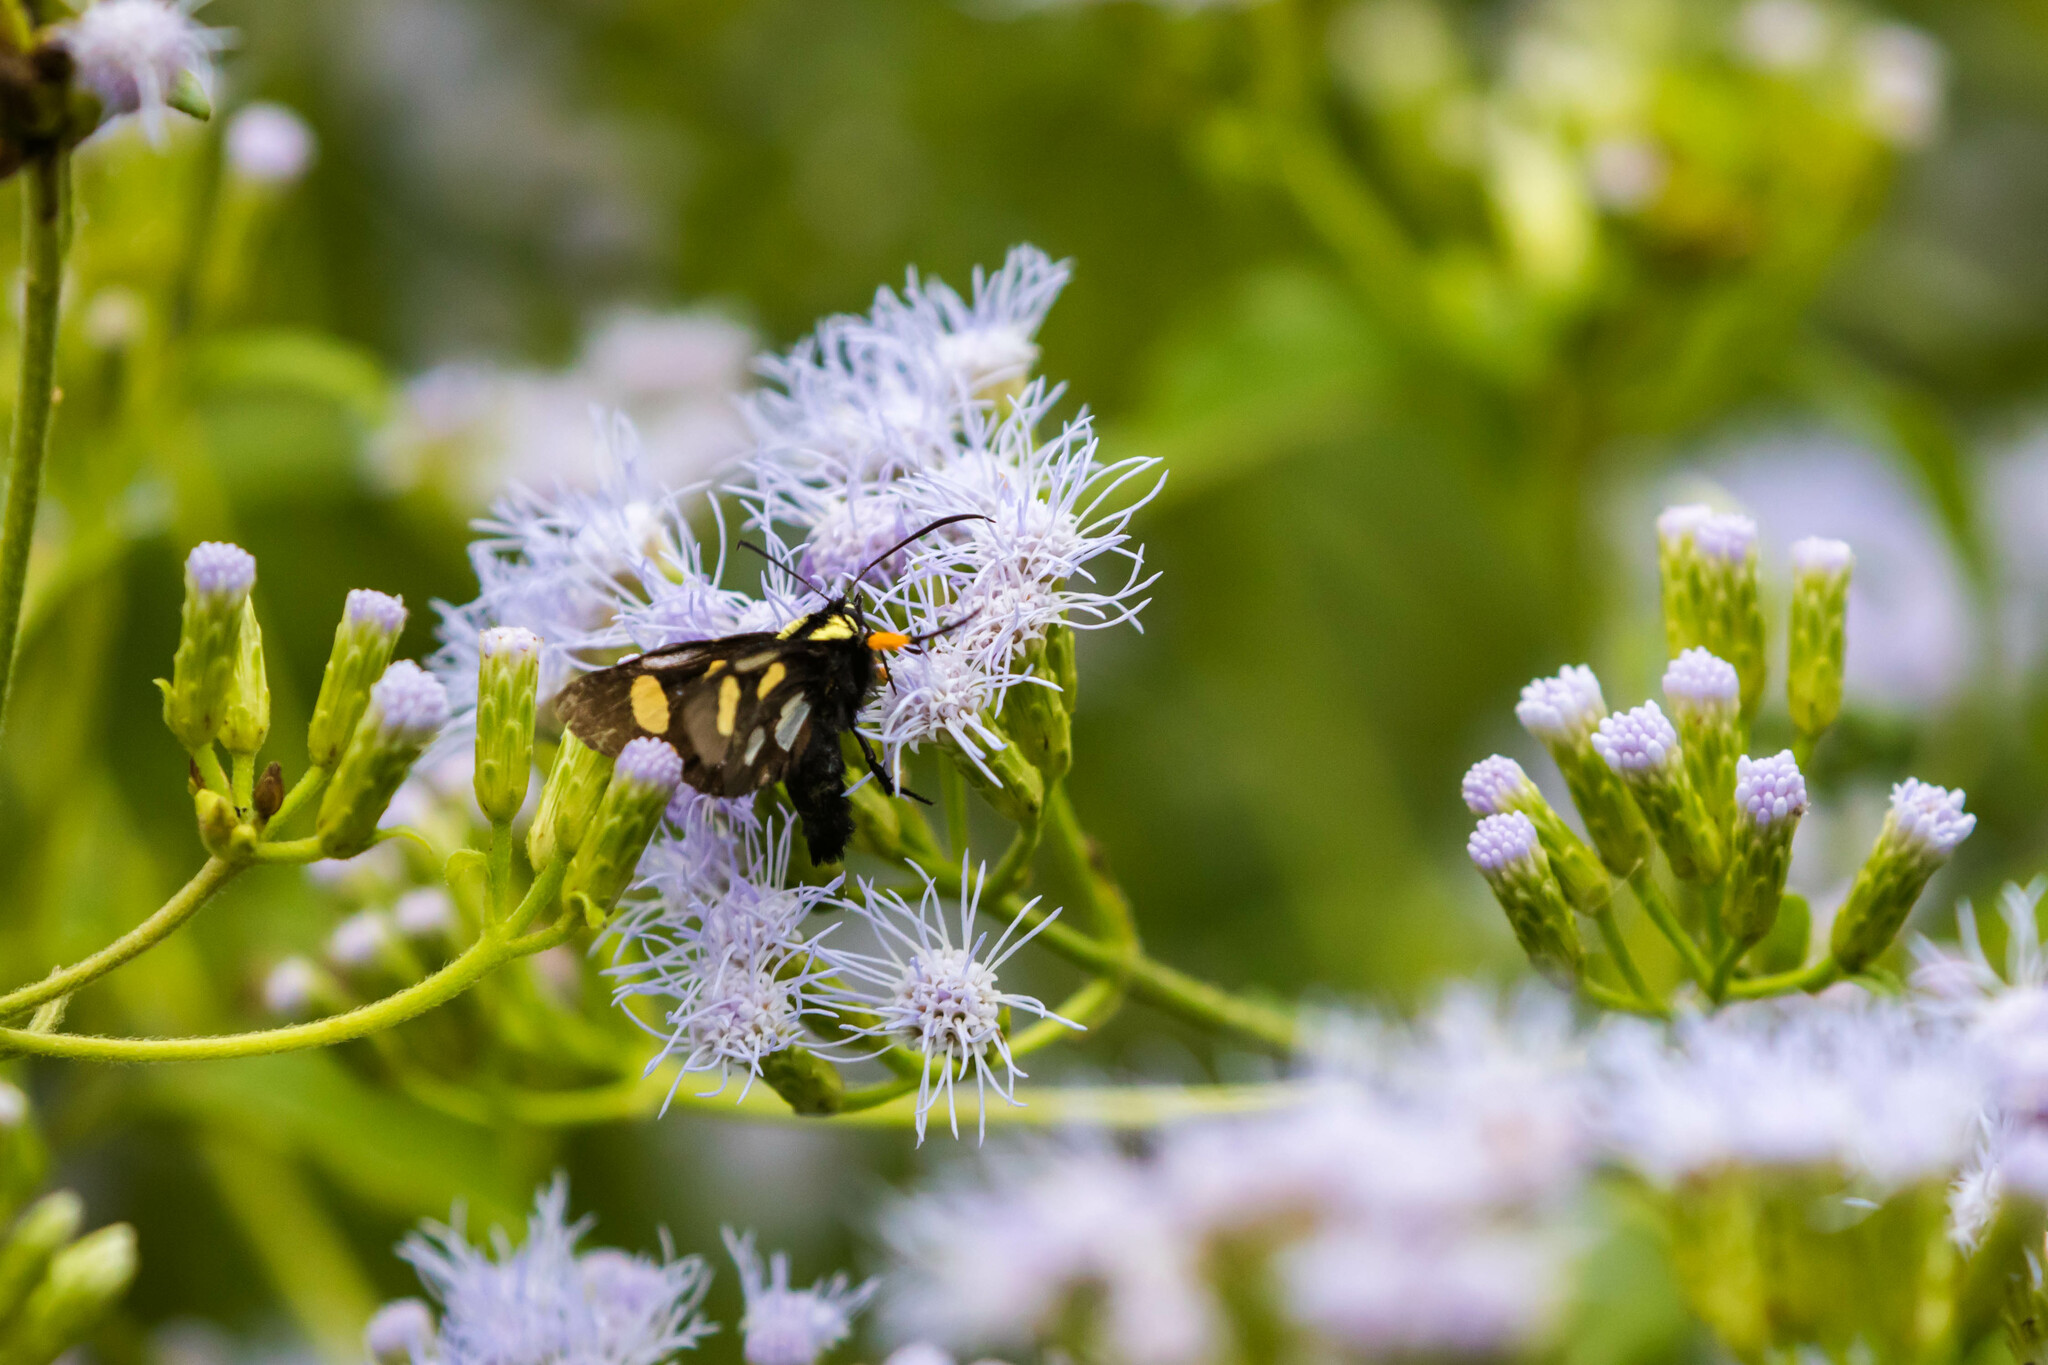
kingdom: Animalia
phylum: Arthropoda
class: Insecta
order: Lepidoptera
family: Noctuidae
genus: Alypia
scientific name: Alypia disparata
